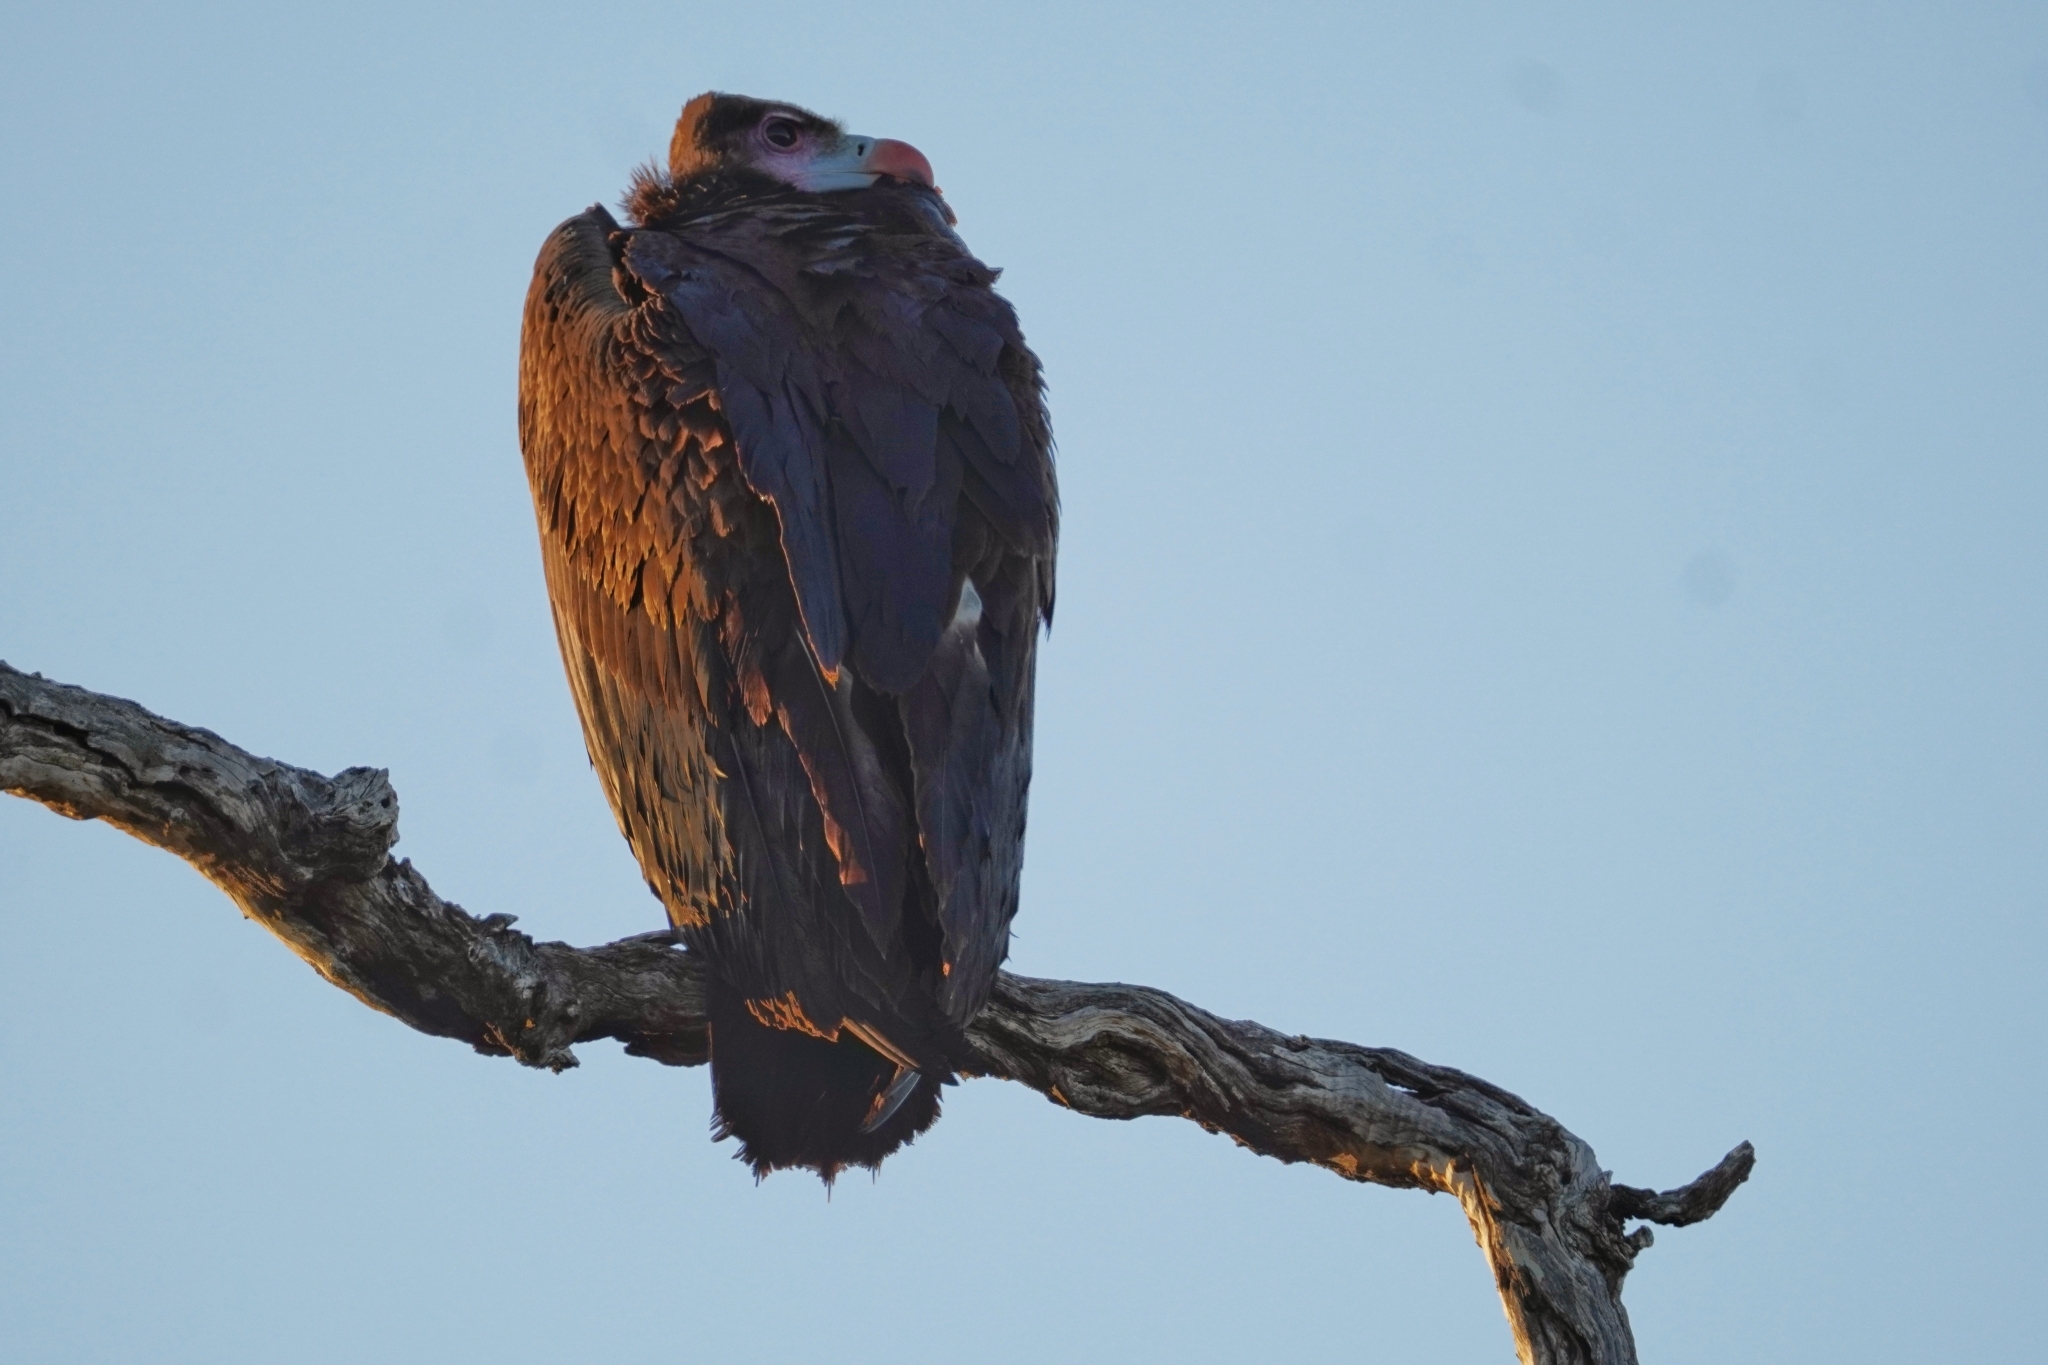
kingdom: Animalia
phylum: Chordata
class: Aves
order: Accipitriformes
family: Accipitridae
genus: Trigonoceps
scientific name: Trigonoceps occipitalis
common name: White-headed vulture
